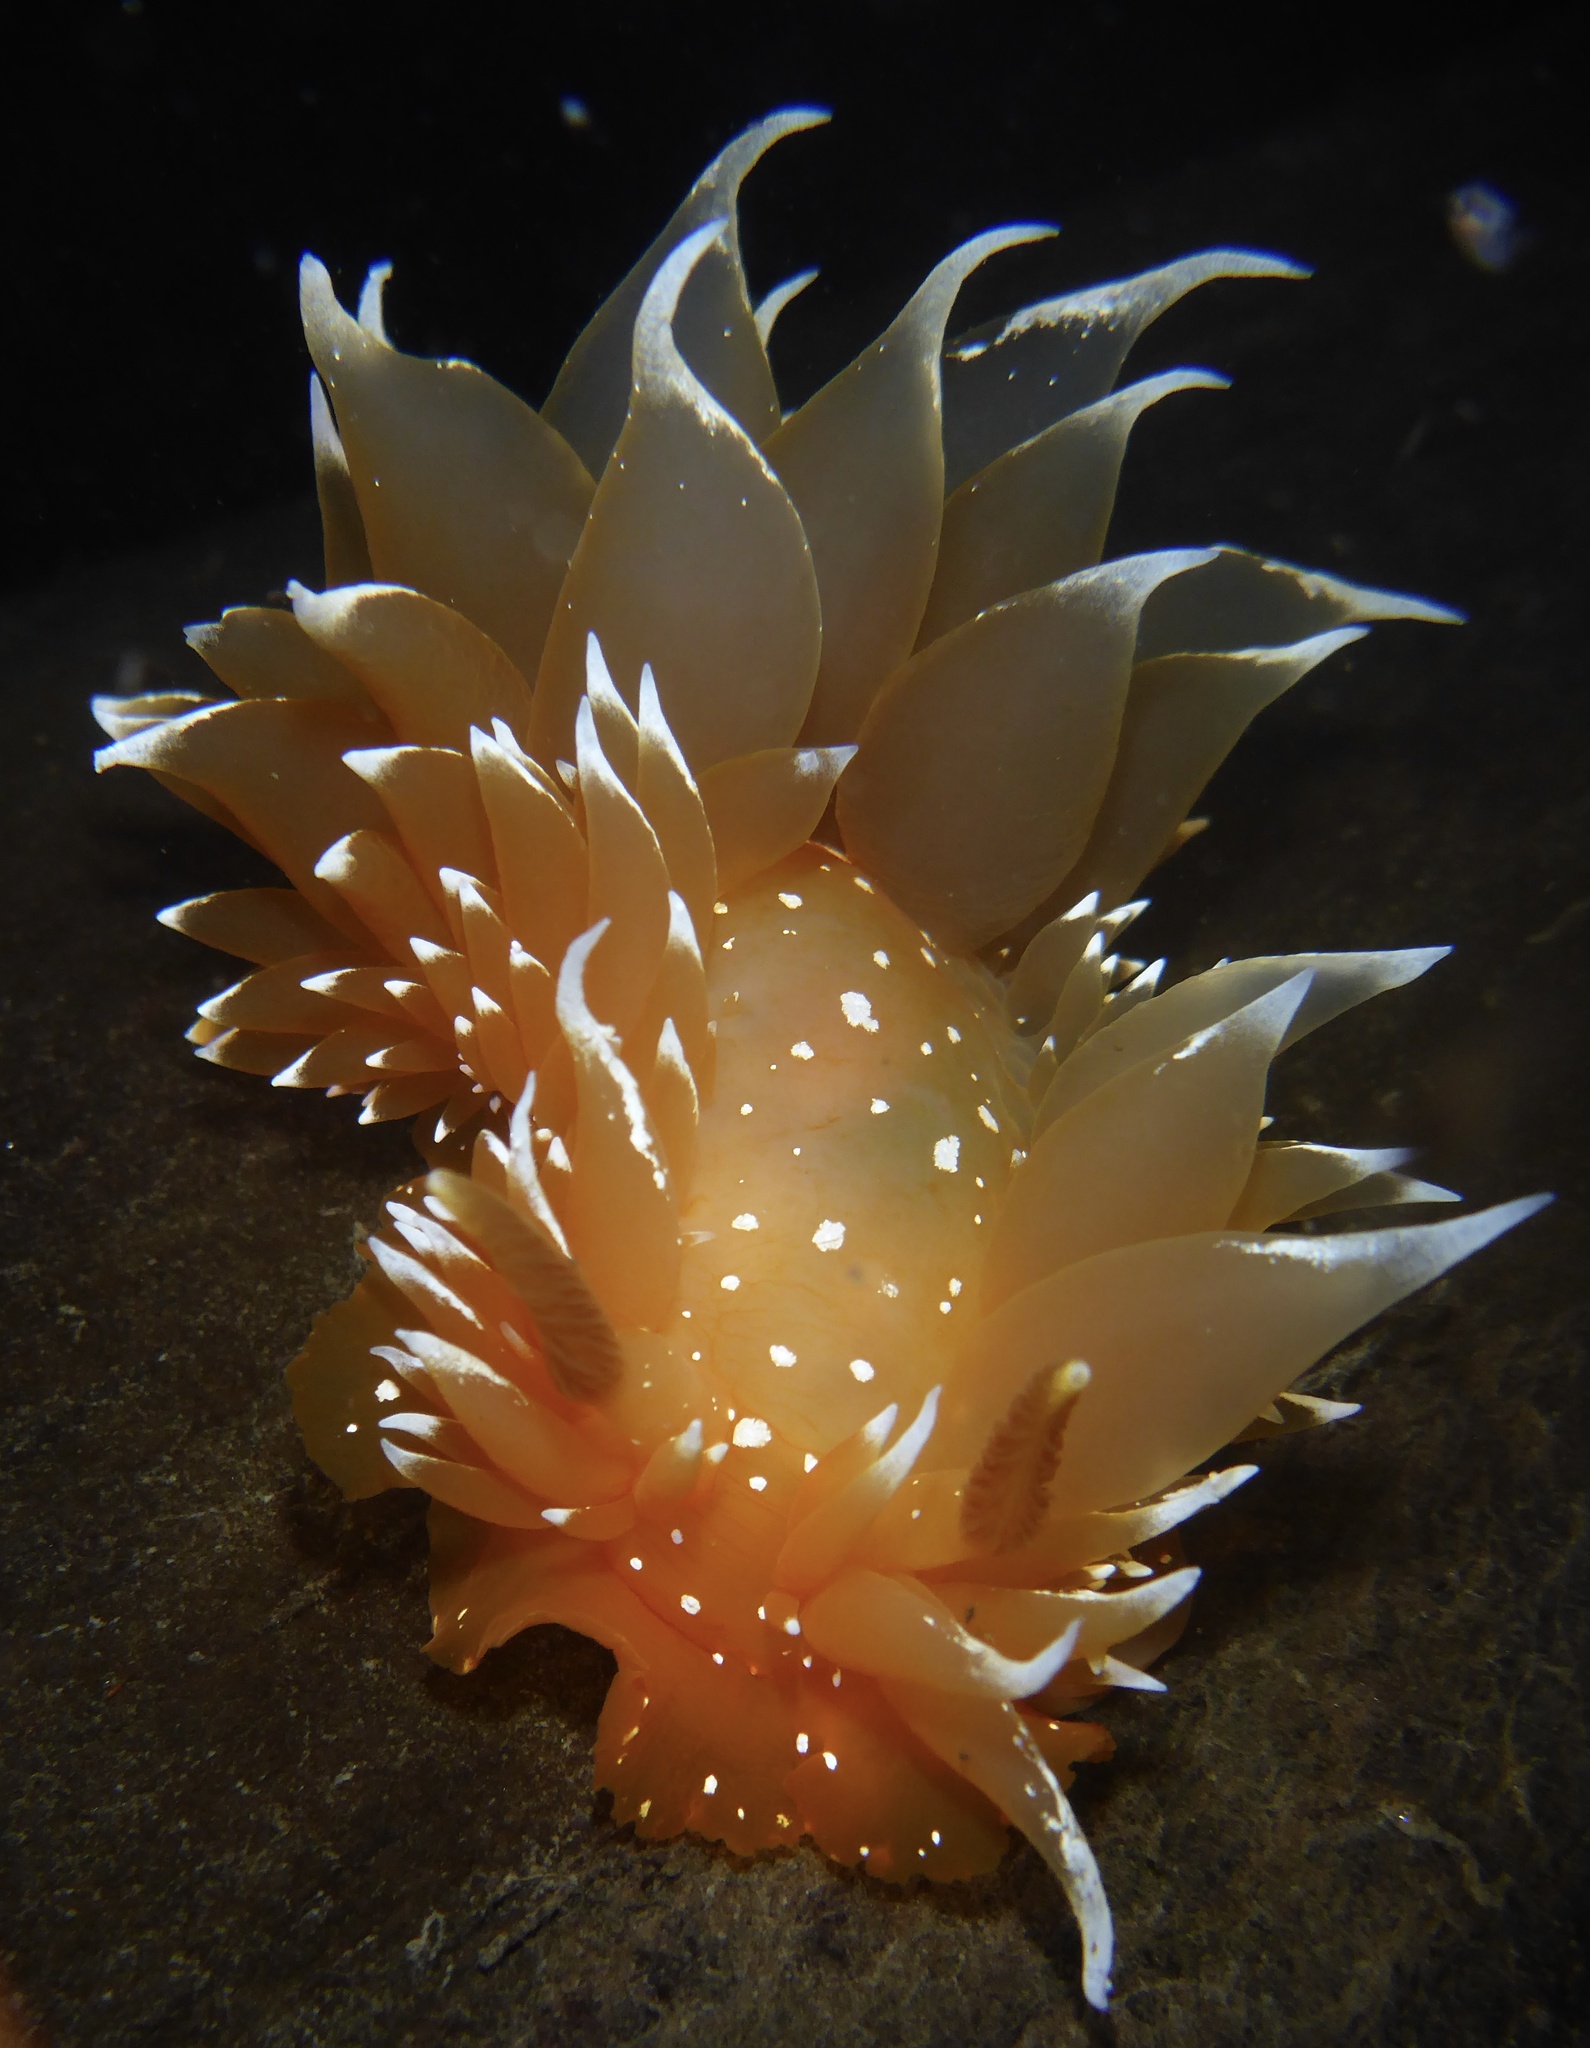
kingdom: Animalia
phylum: Mollusca
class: Gastropoda
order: Nudibranchia
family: Dironidae
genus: Dirona
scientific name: Dirona pellucida
